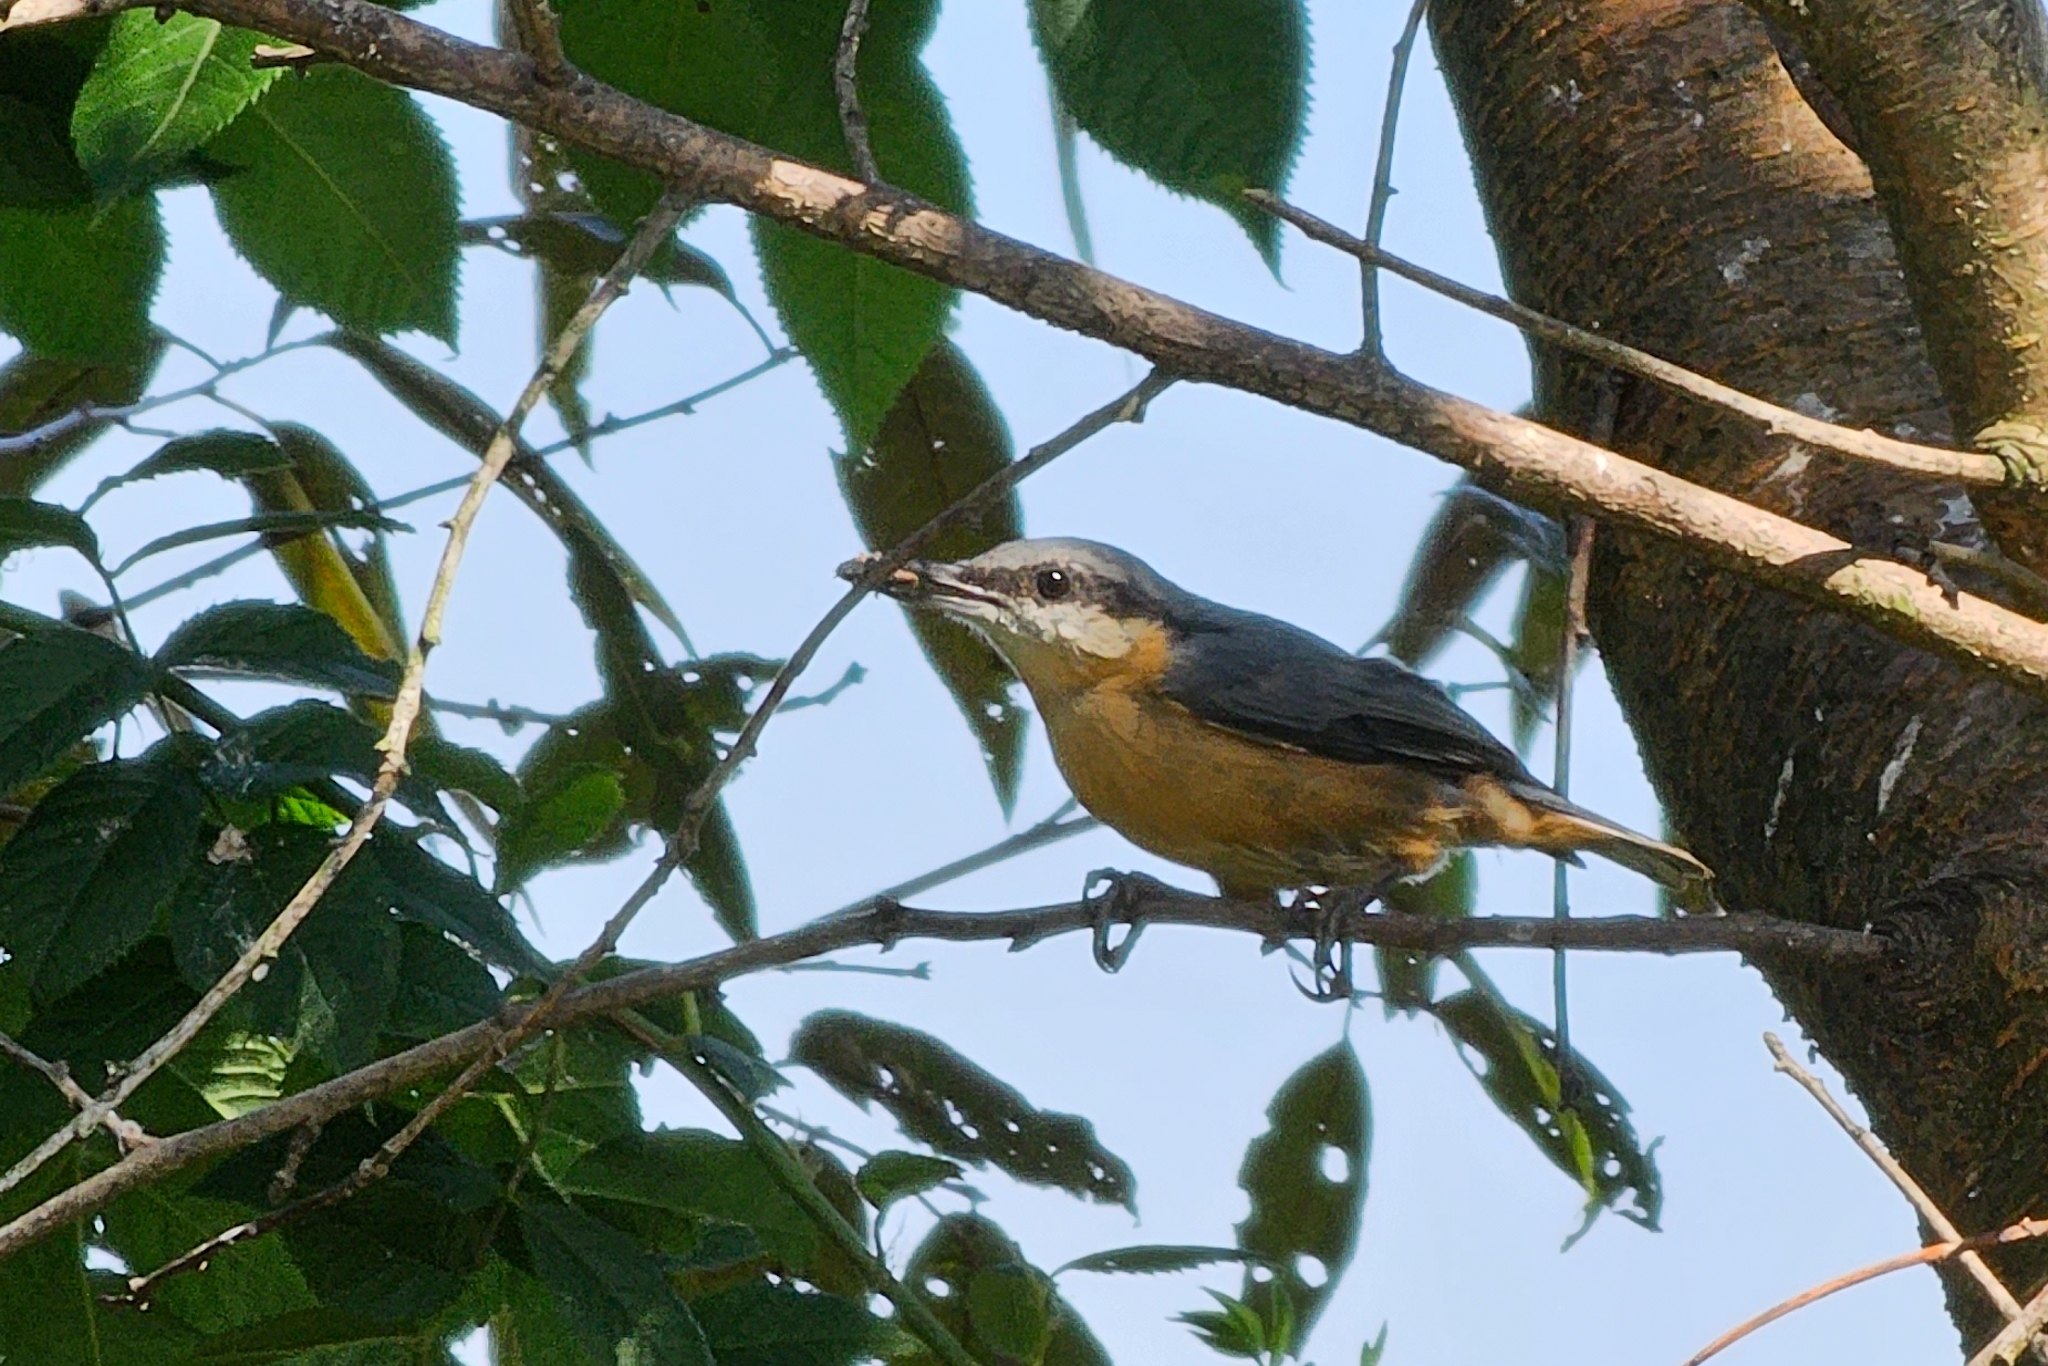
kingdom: Animalia
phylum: Chordata
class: Aves
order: Passeriformes
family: Sittidae
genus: Sitta
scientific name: Sitta europaea
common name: Eurasian nuthatch
